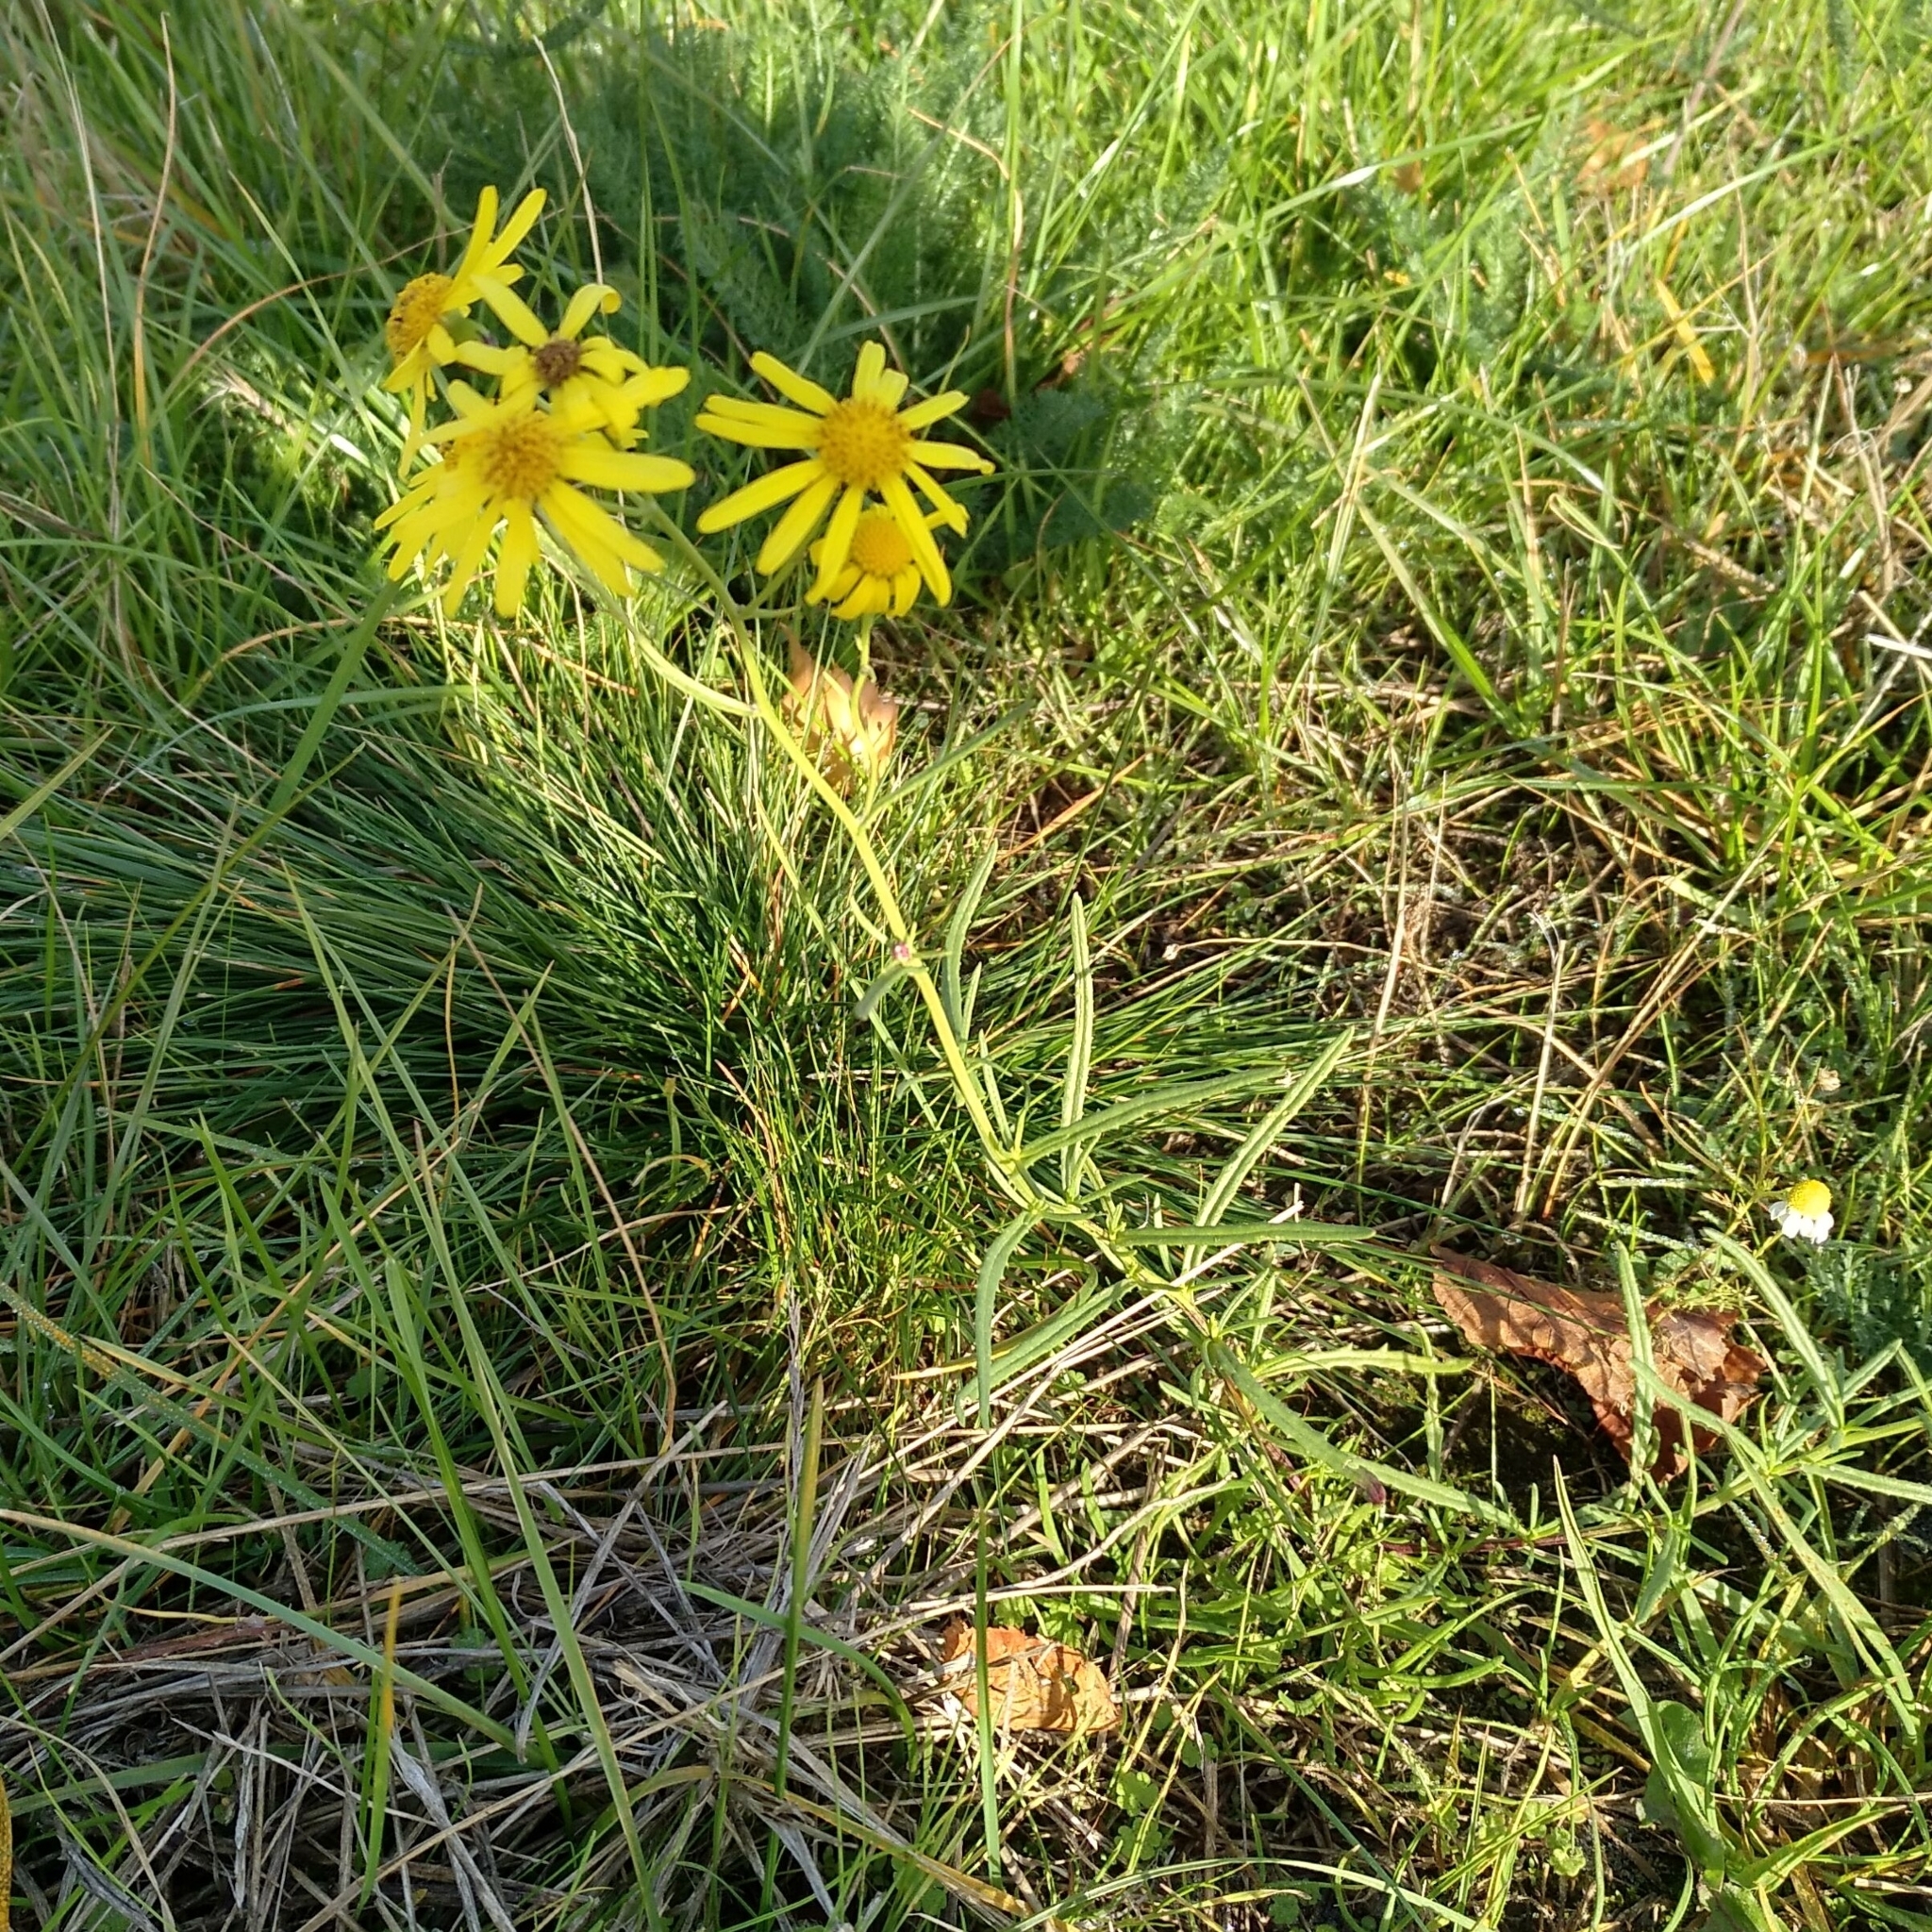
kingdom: Plantae
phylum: Tracheophyta
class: Magnoliopsida
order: Asterales
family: Asteraceae
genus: Senecio
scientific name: Senecio inaequidens
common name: Narrow-leaved ragwort
